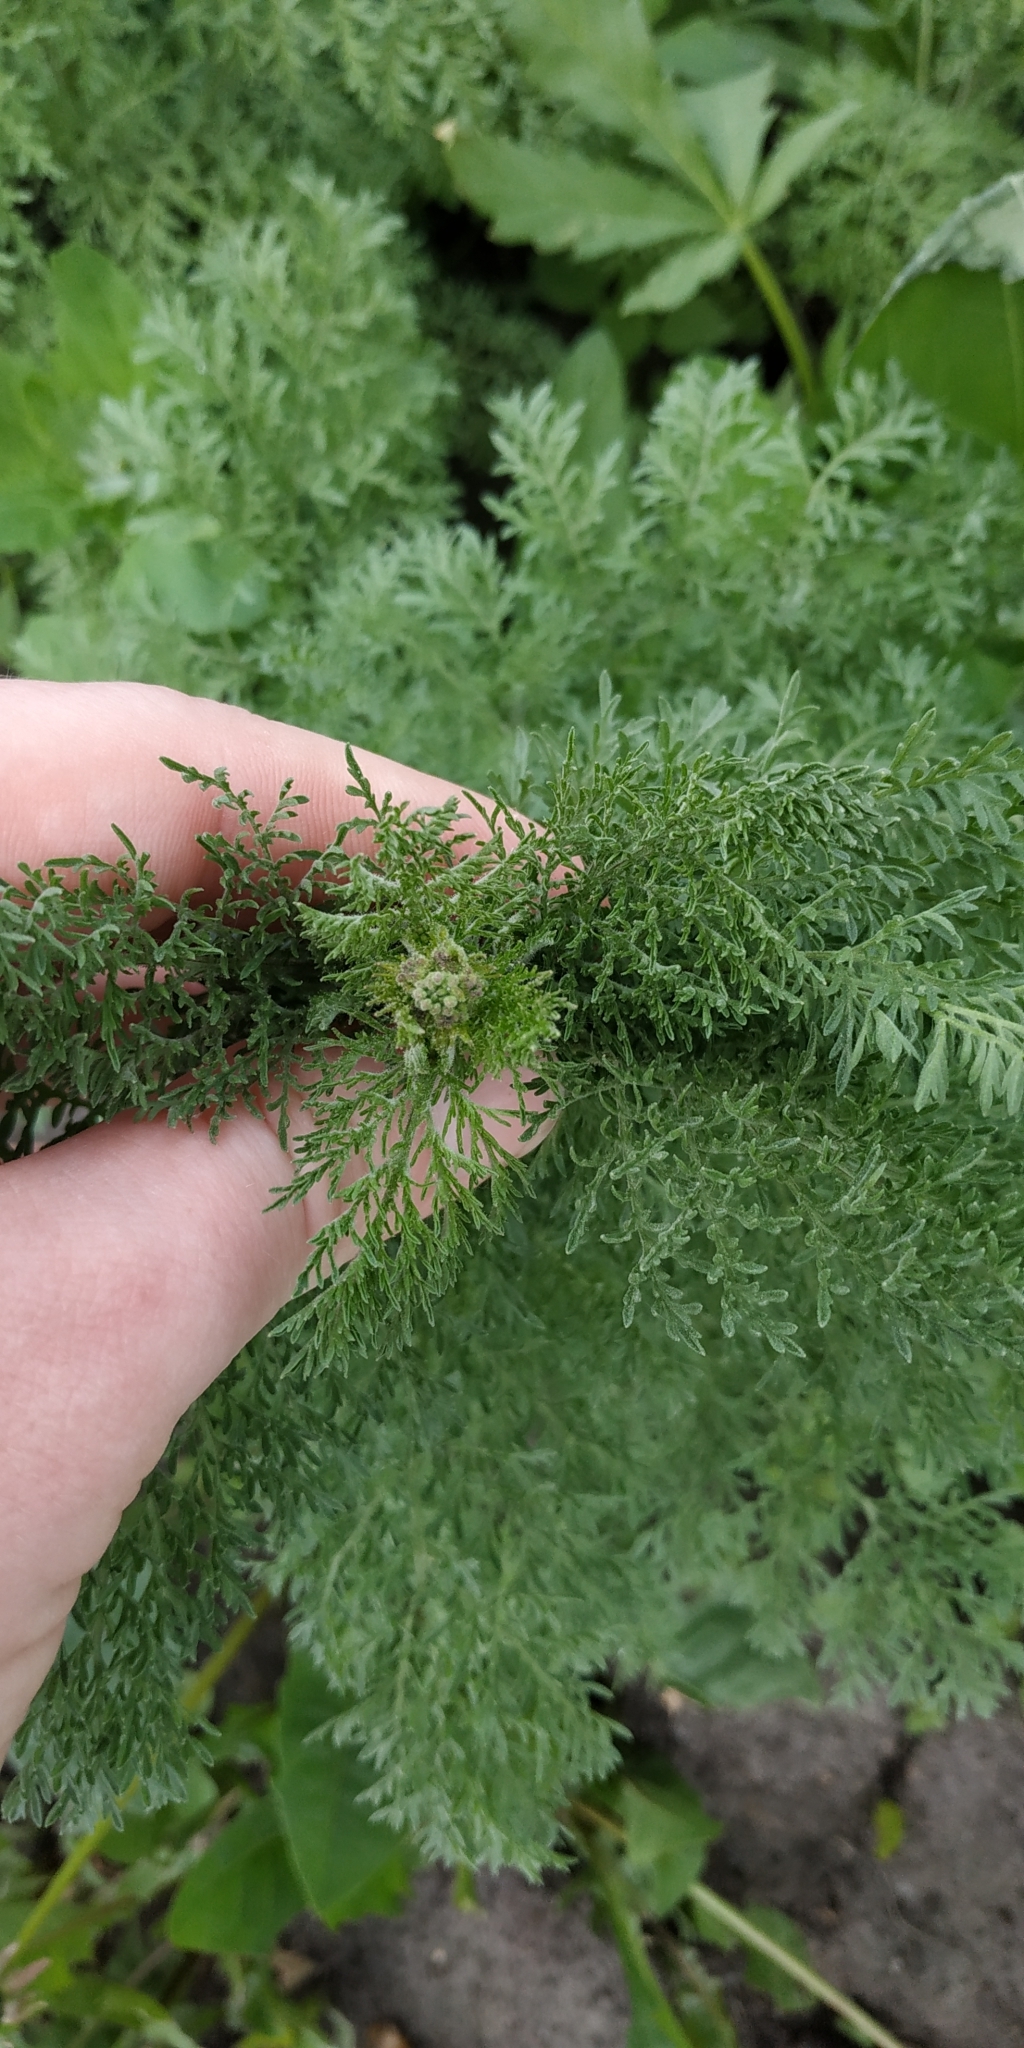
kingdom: Plantae
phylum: Tracheophyta
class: Magnoliopsida
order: Brassicales
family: Brassicaceae
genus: Descurainia
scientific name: Descurainia sophia
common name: Flixweed
